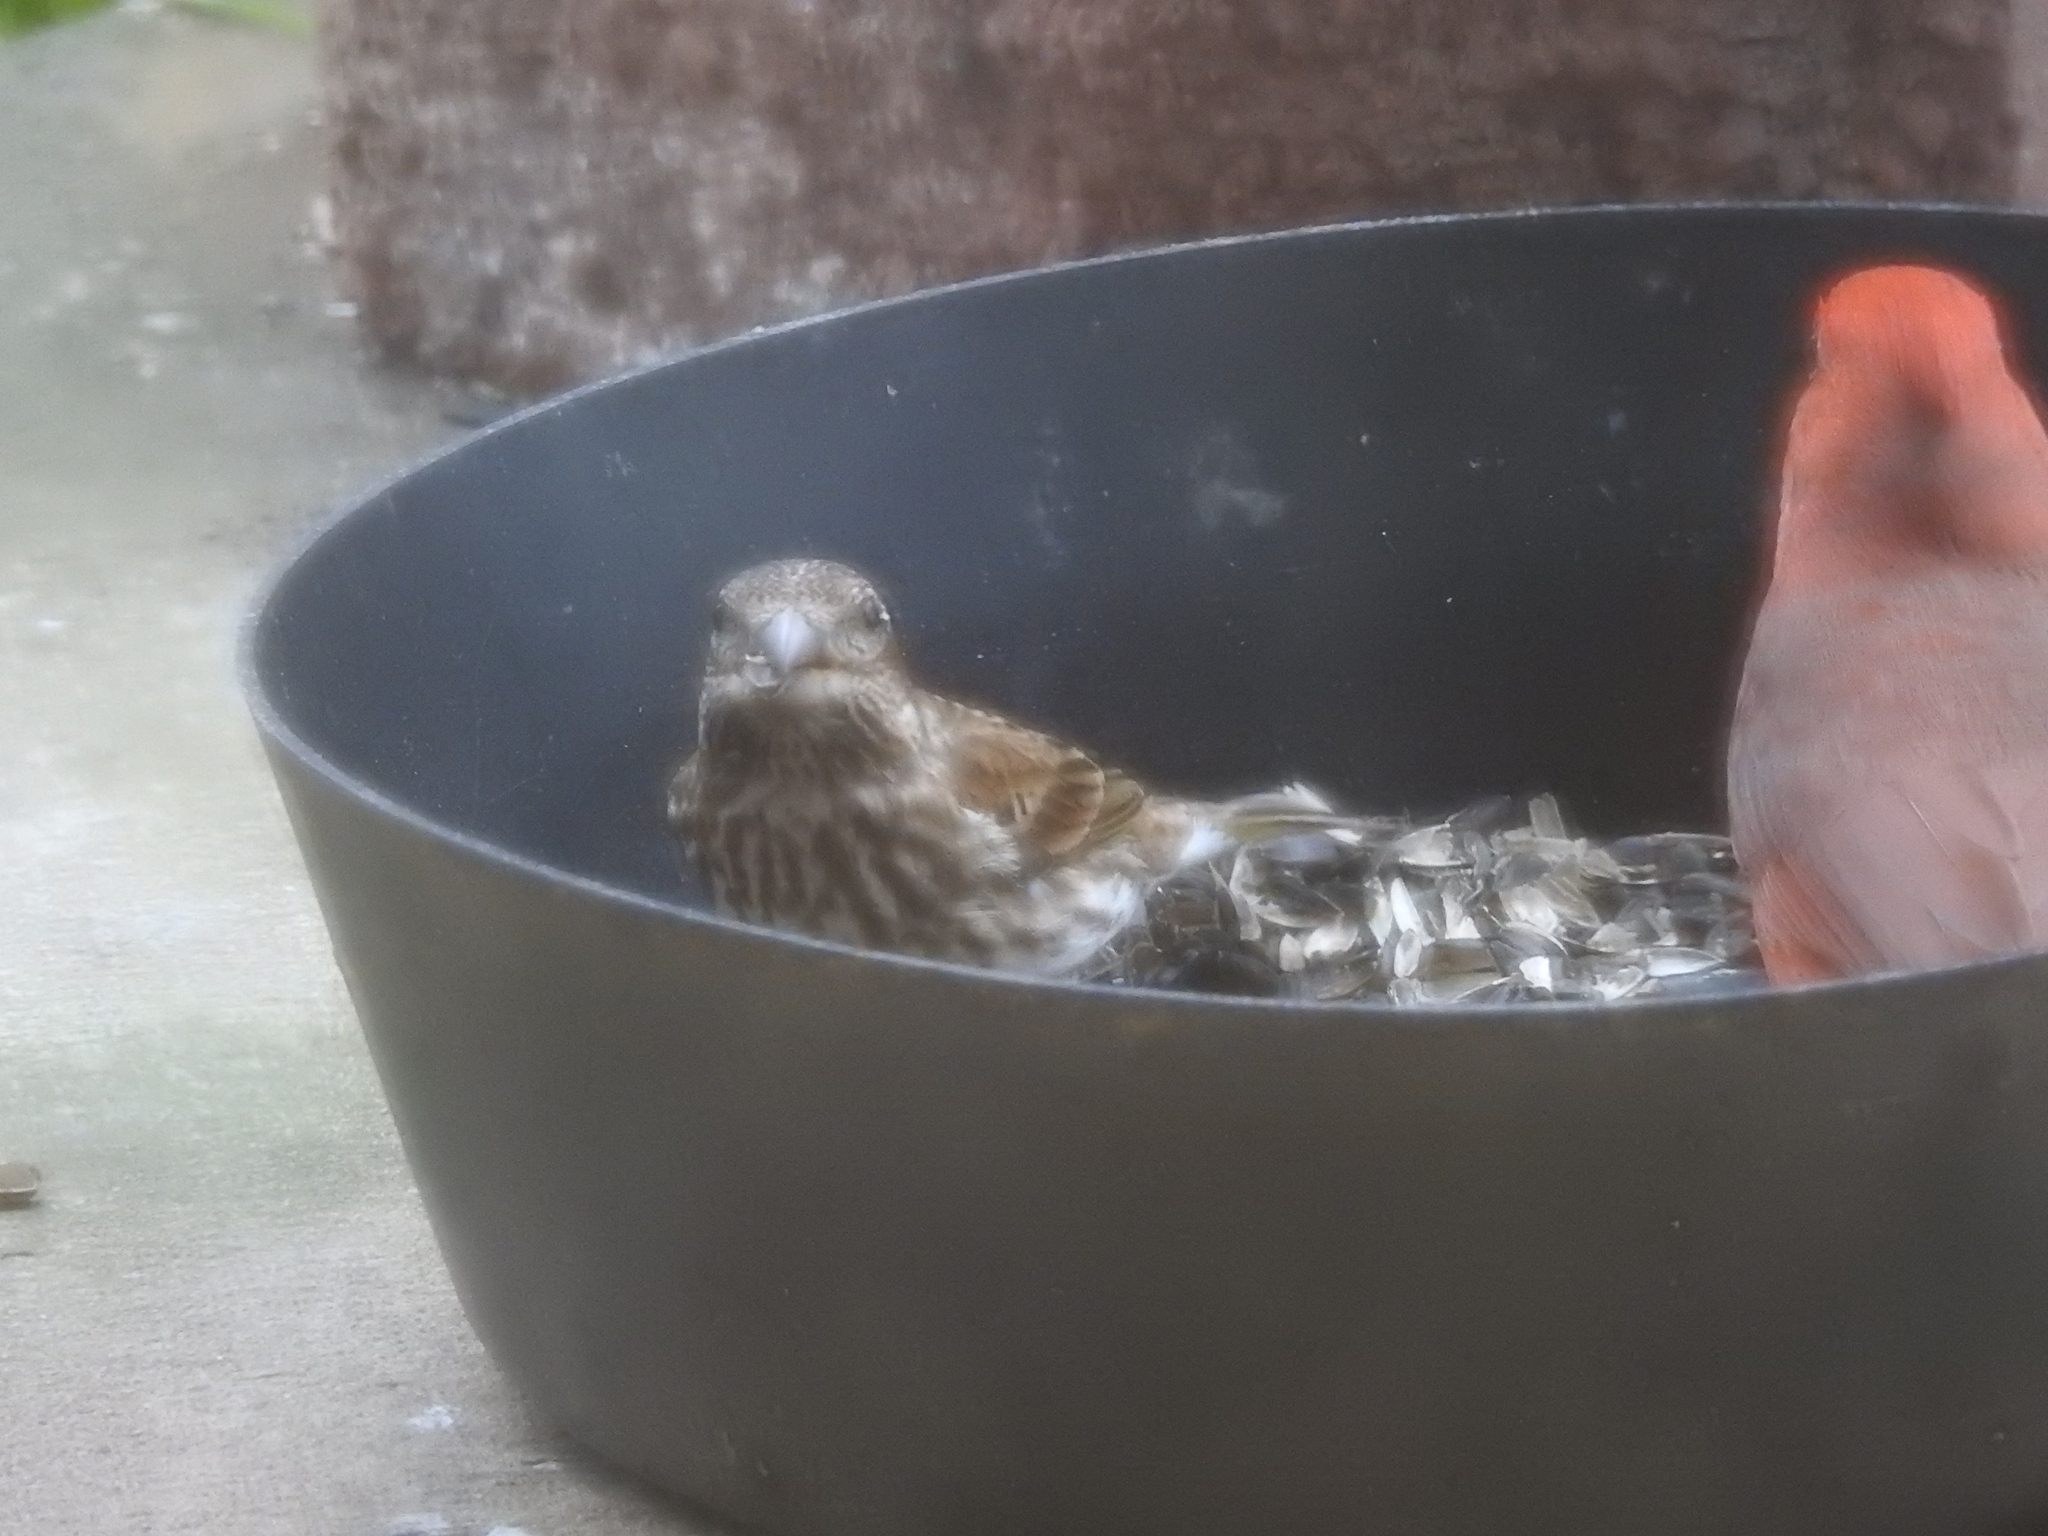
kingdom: Animalia
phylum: Chordata
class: Aves
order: Passeriformes
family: Fringillidae
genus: Haemorhous
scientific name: Haemorhous purpureus
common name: Purple finch
